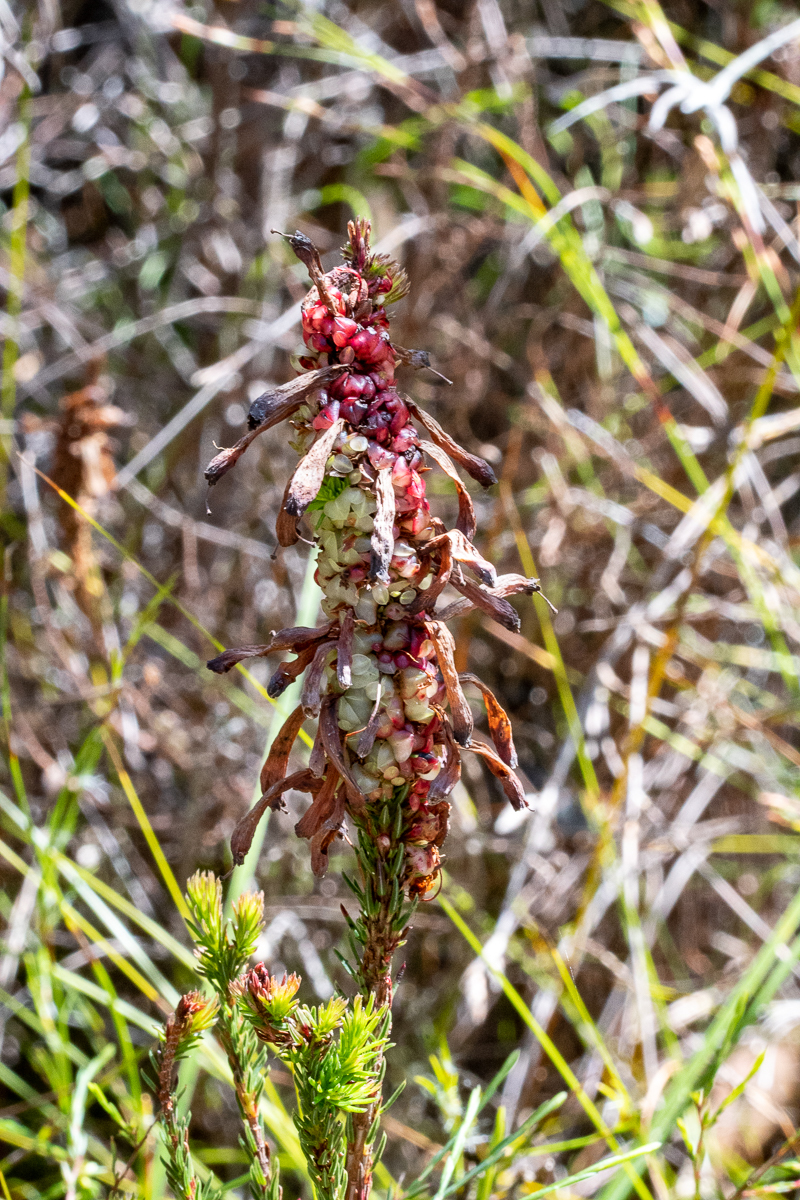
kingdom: Plantae
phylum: Tracheophyta
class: Magnoliopsida
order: Ericales
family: Ericaceae
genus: Erica
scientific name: Erica sessiliflora
